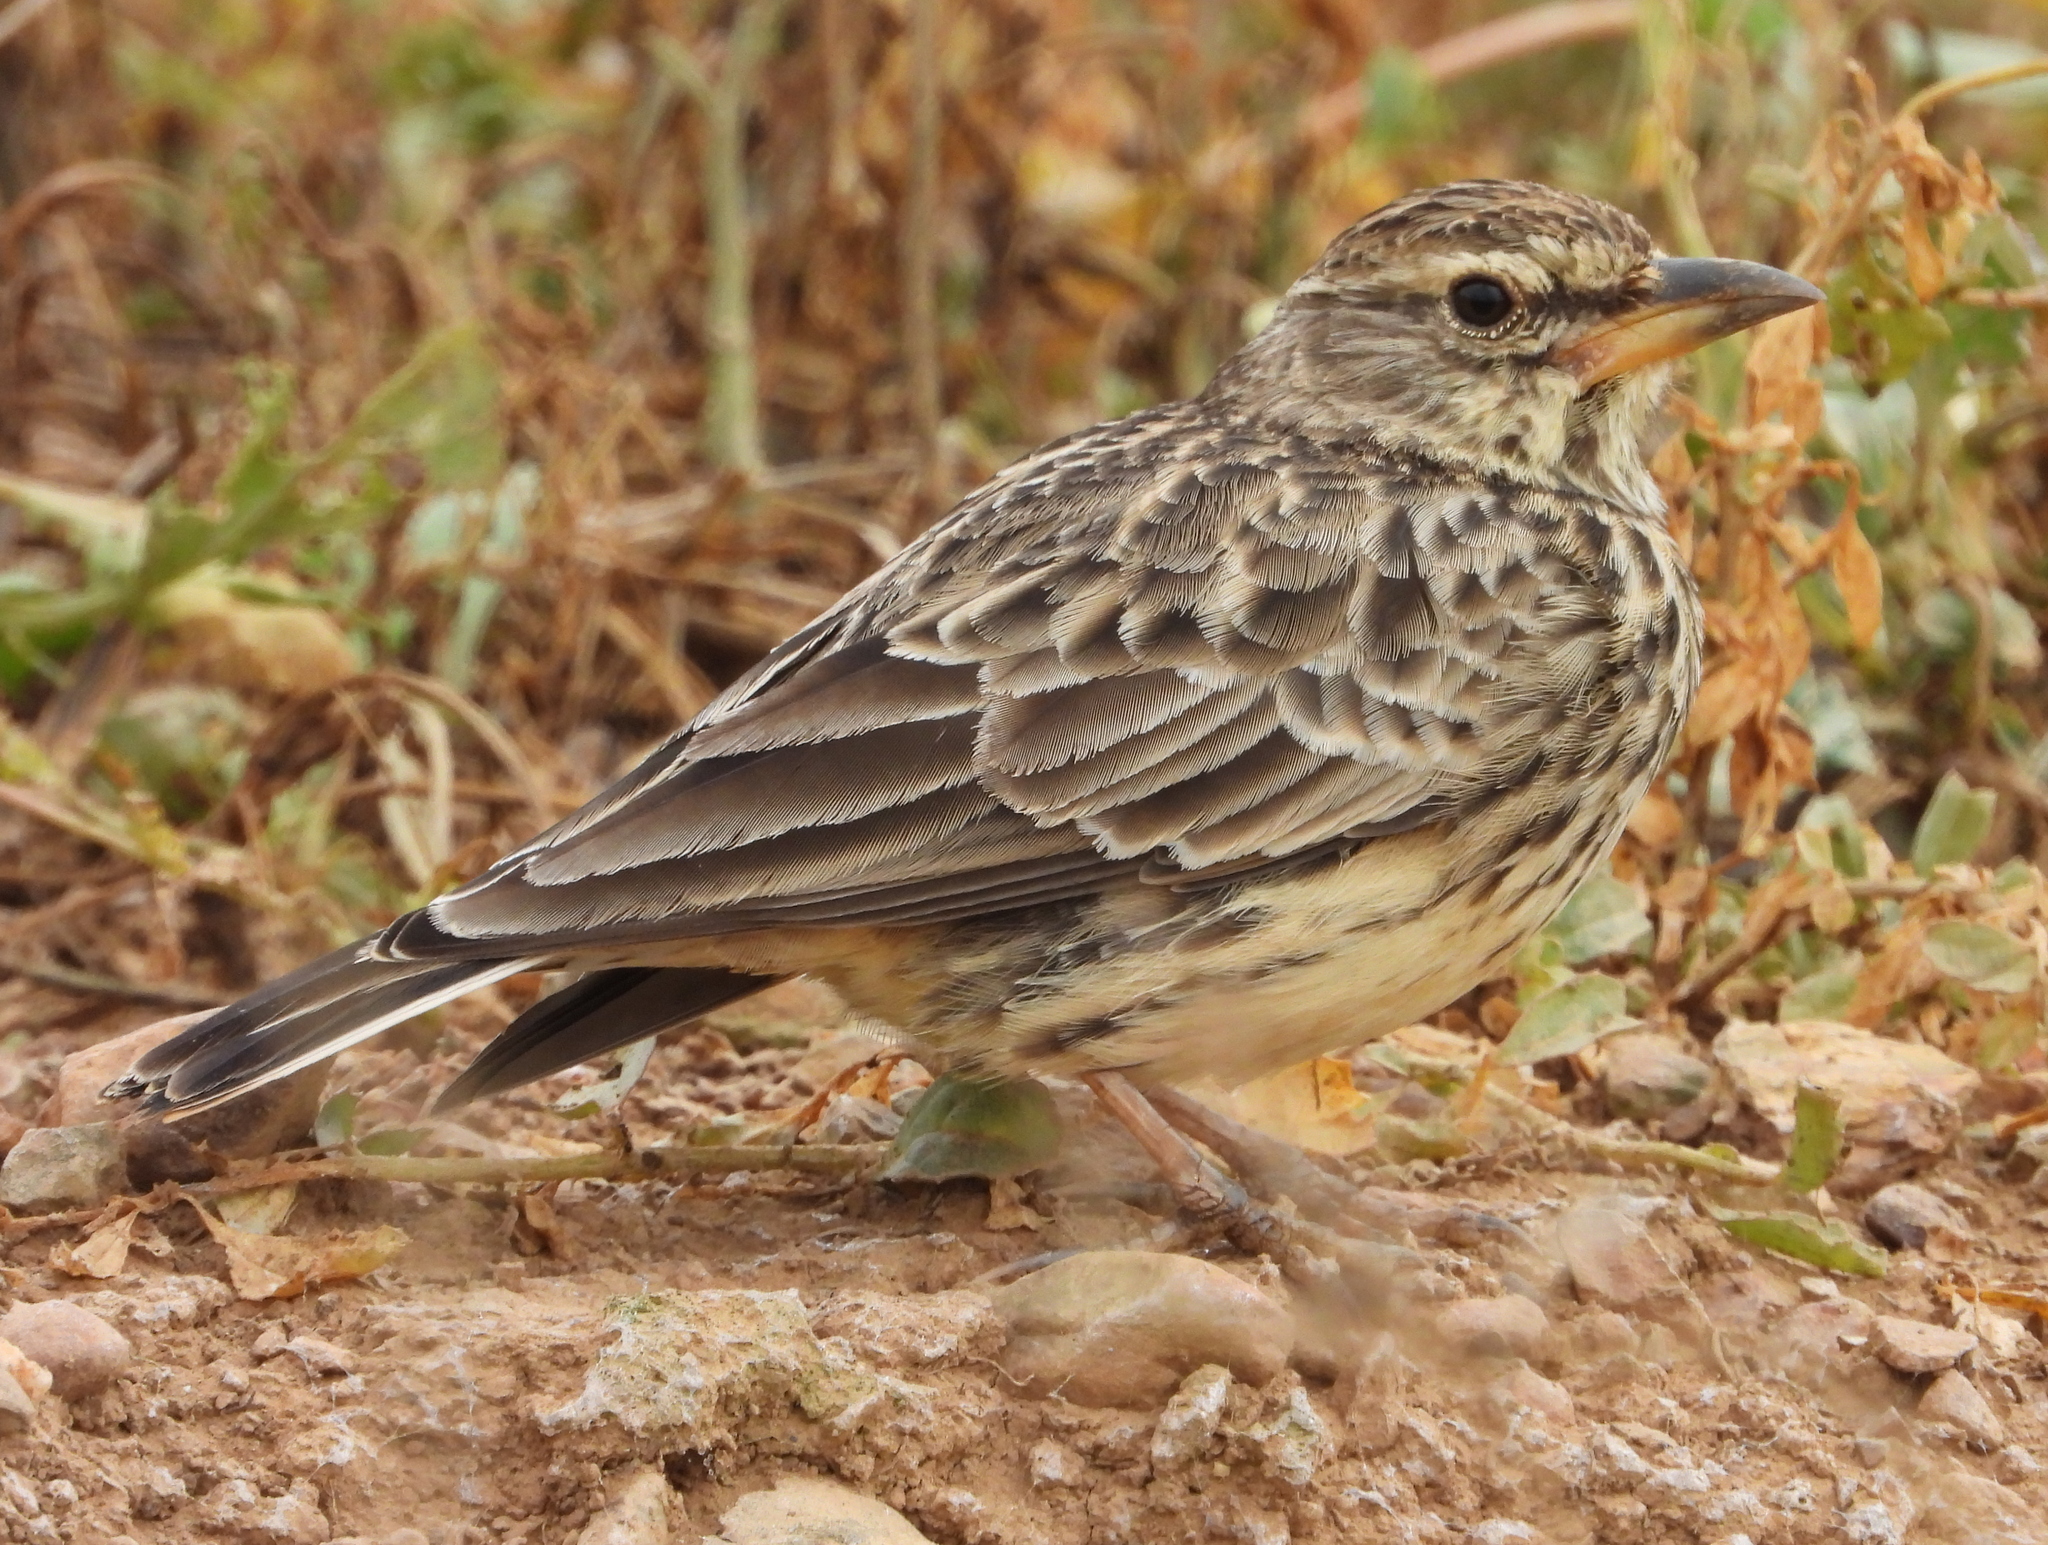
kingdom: Animalia
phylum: Chordata
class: Aves
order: Passeriformes
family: Alaudidae
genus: Galerida
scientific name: Galerida magnirostris
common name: Large-billed lark
